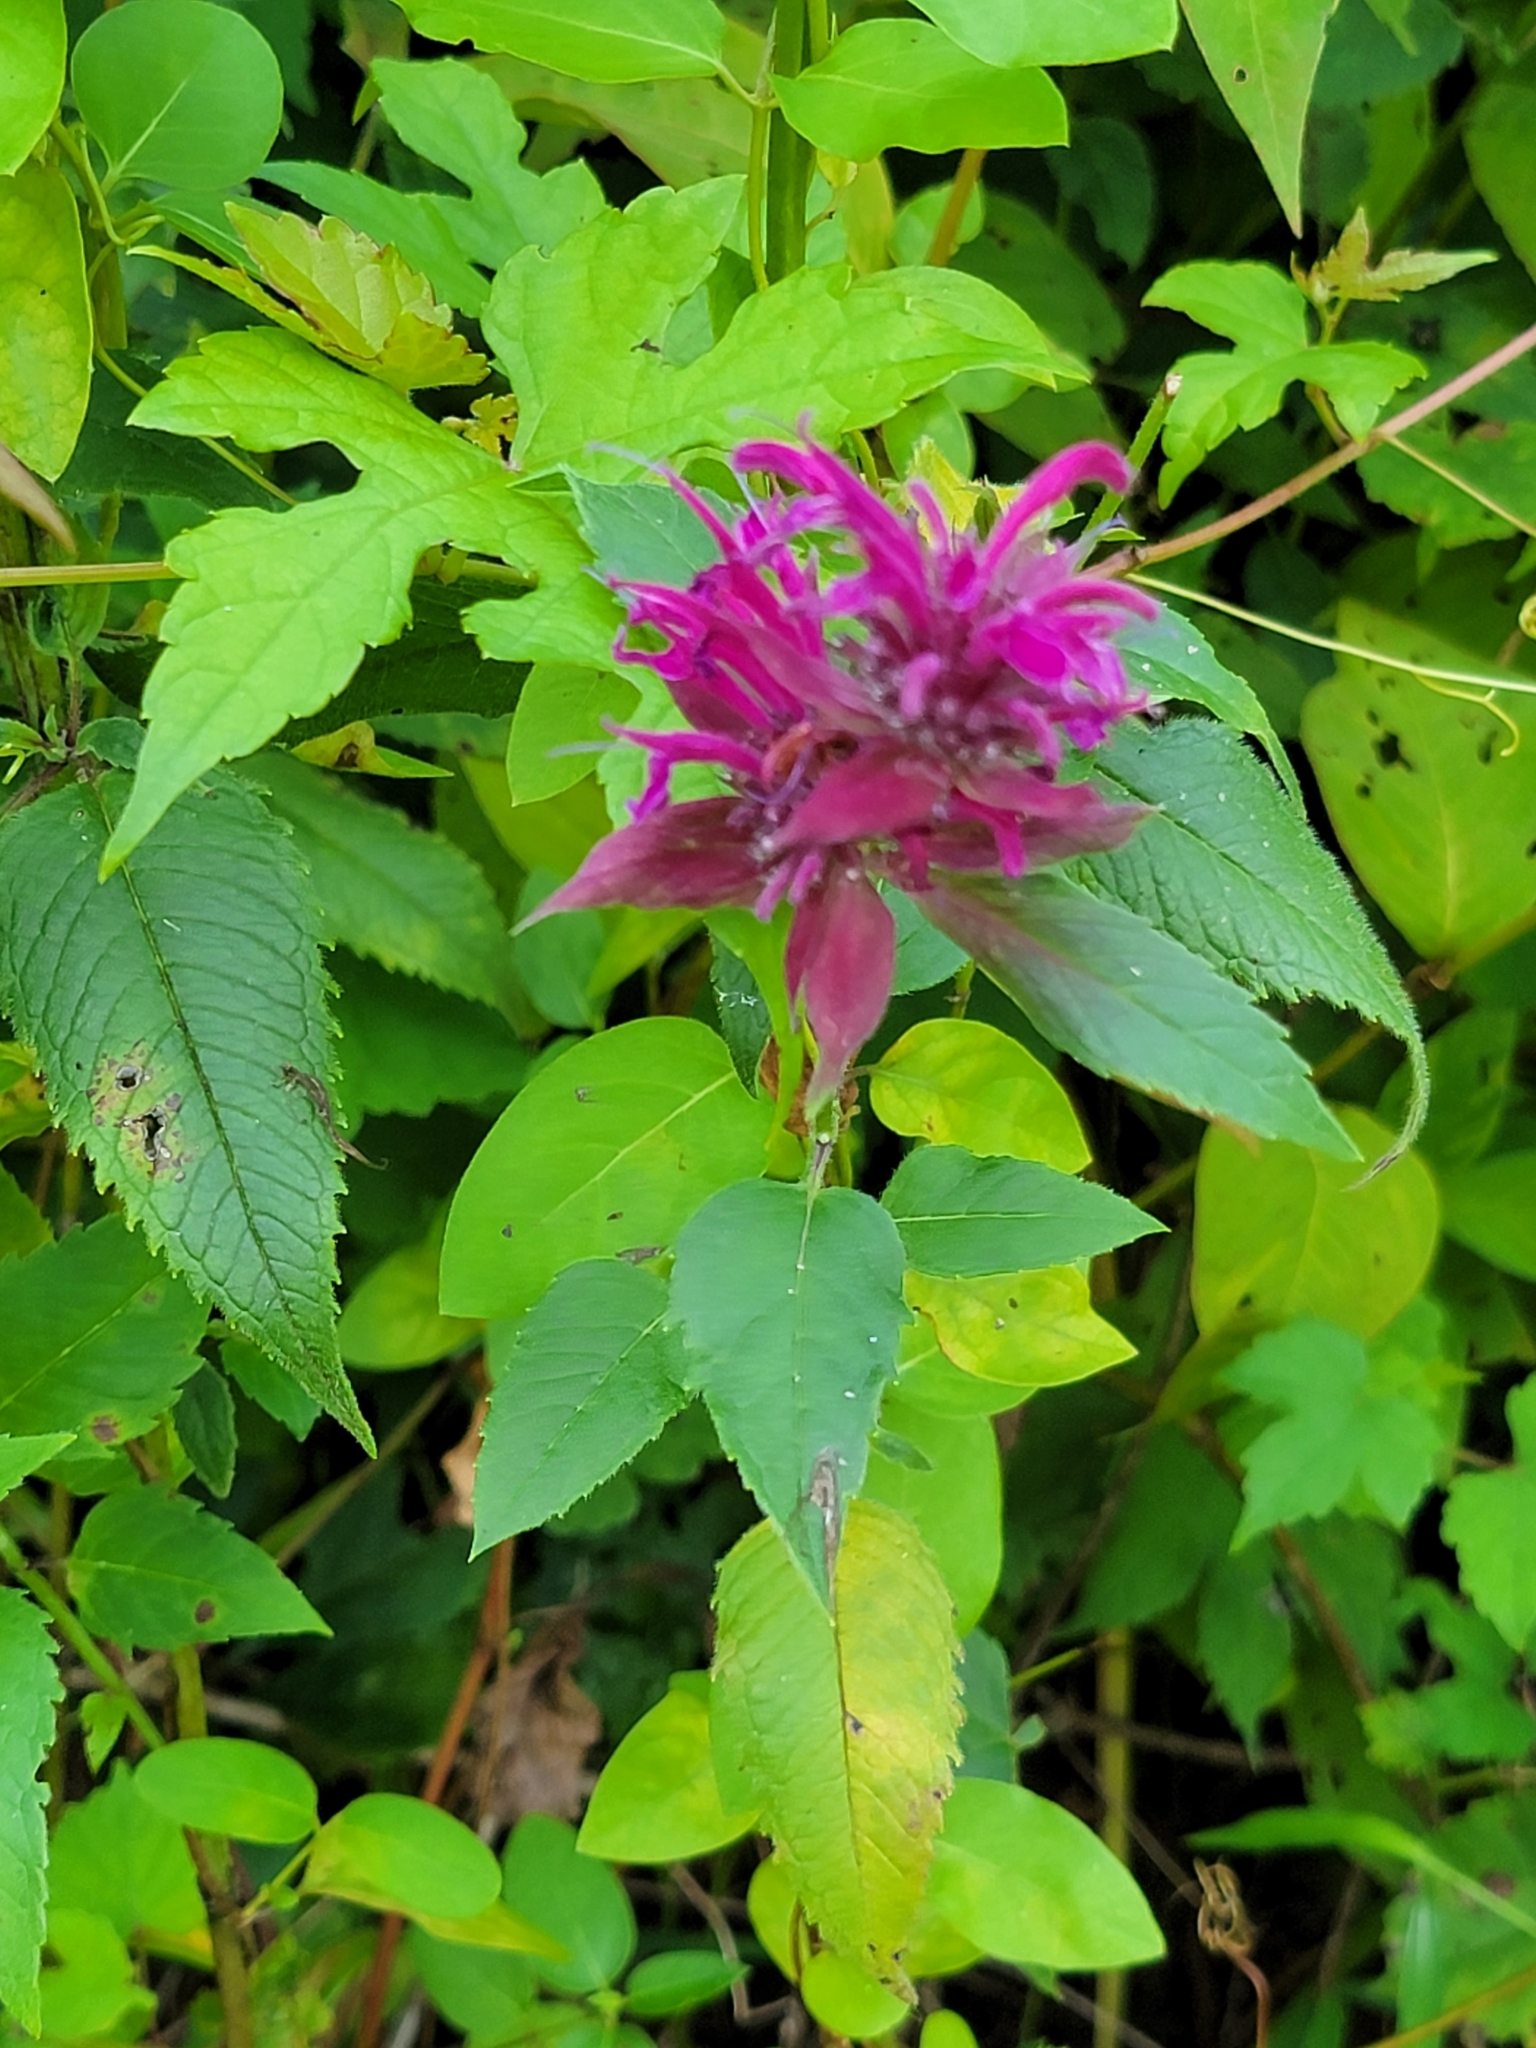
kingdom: Plantae
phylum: Tracheophyta
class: Magnoliopsida
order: Lamiales
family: Lamiaceae
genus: Monarda
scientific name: Monarda didyma
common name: Beebalm
